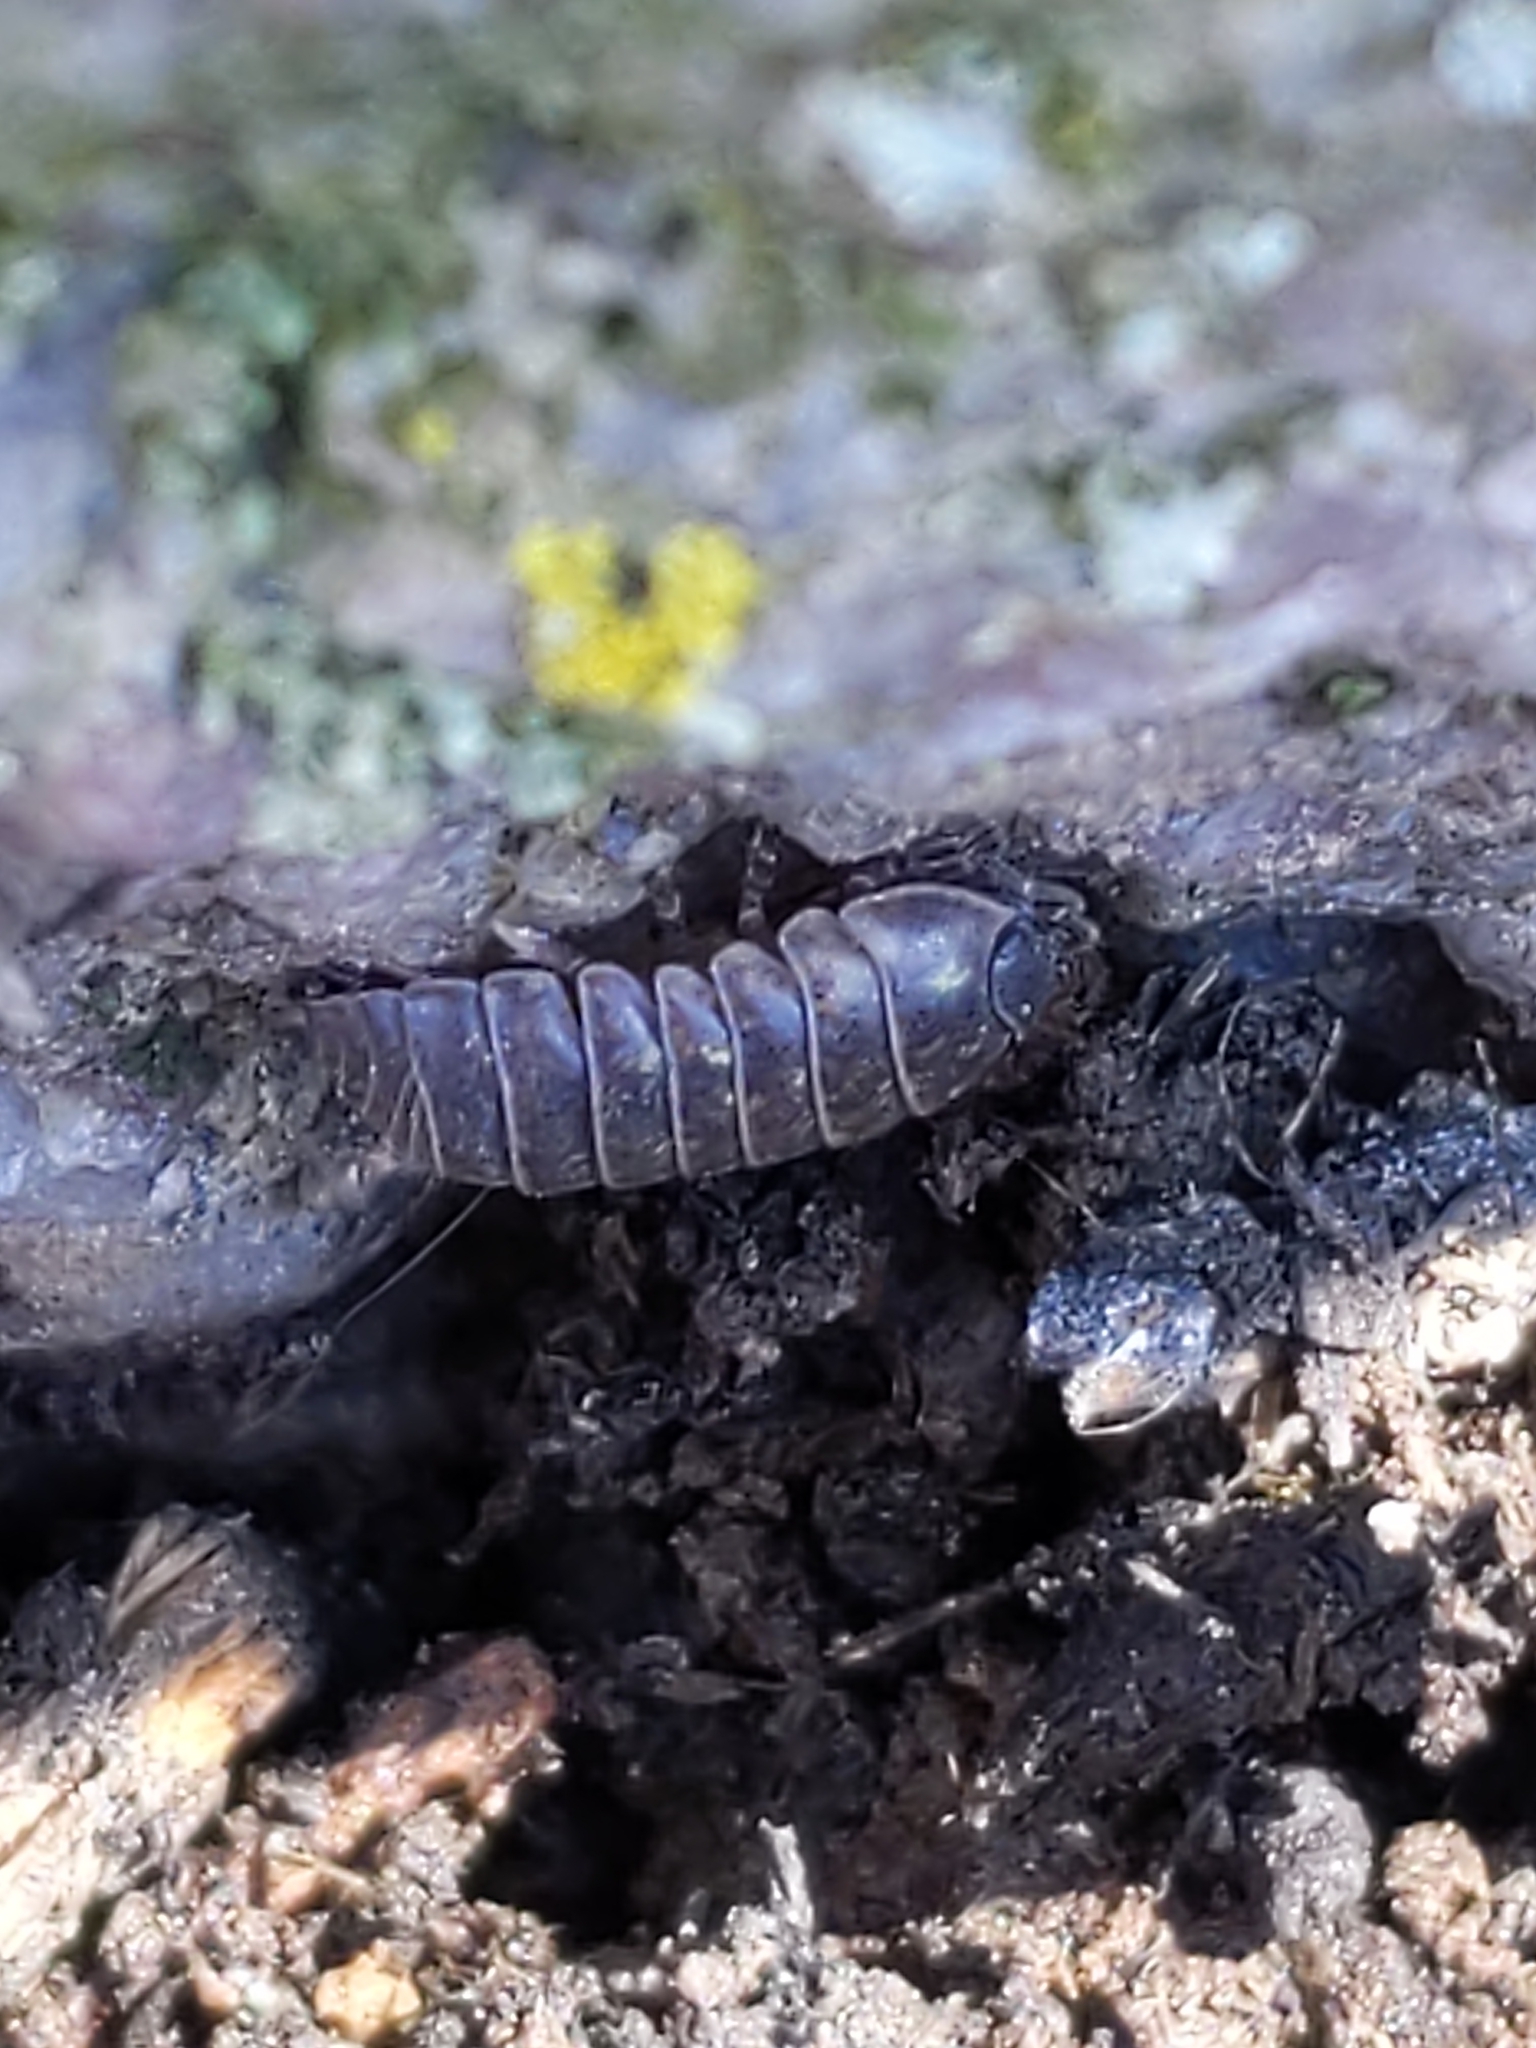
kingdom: Animalia
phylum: Arthropoda
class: Malacostraca
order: Isopoda
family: Armadillidiidae
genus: Armadillidium
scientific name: Armadillidium vulgare
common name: Common pill woodlouse
